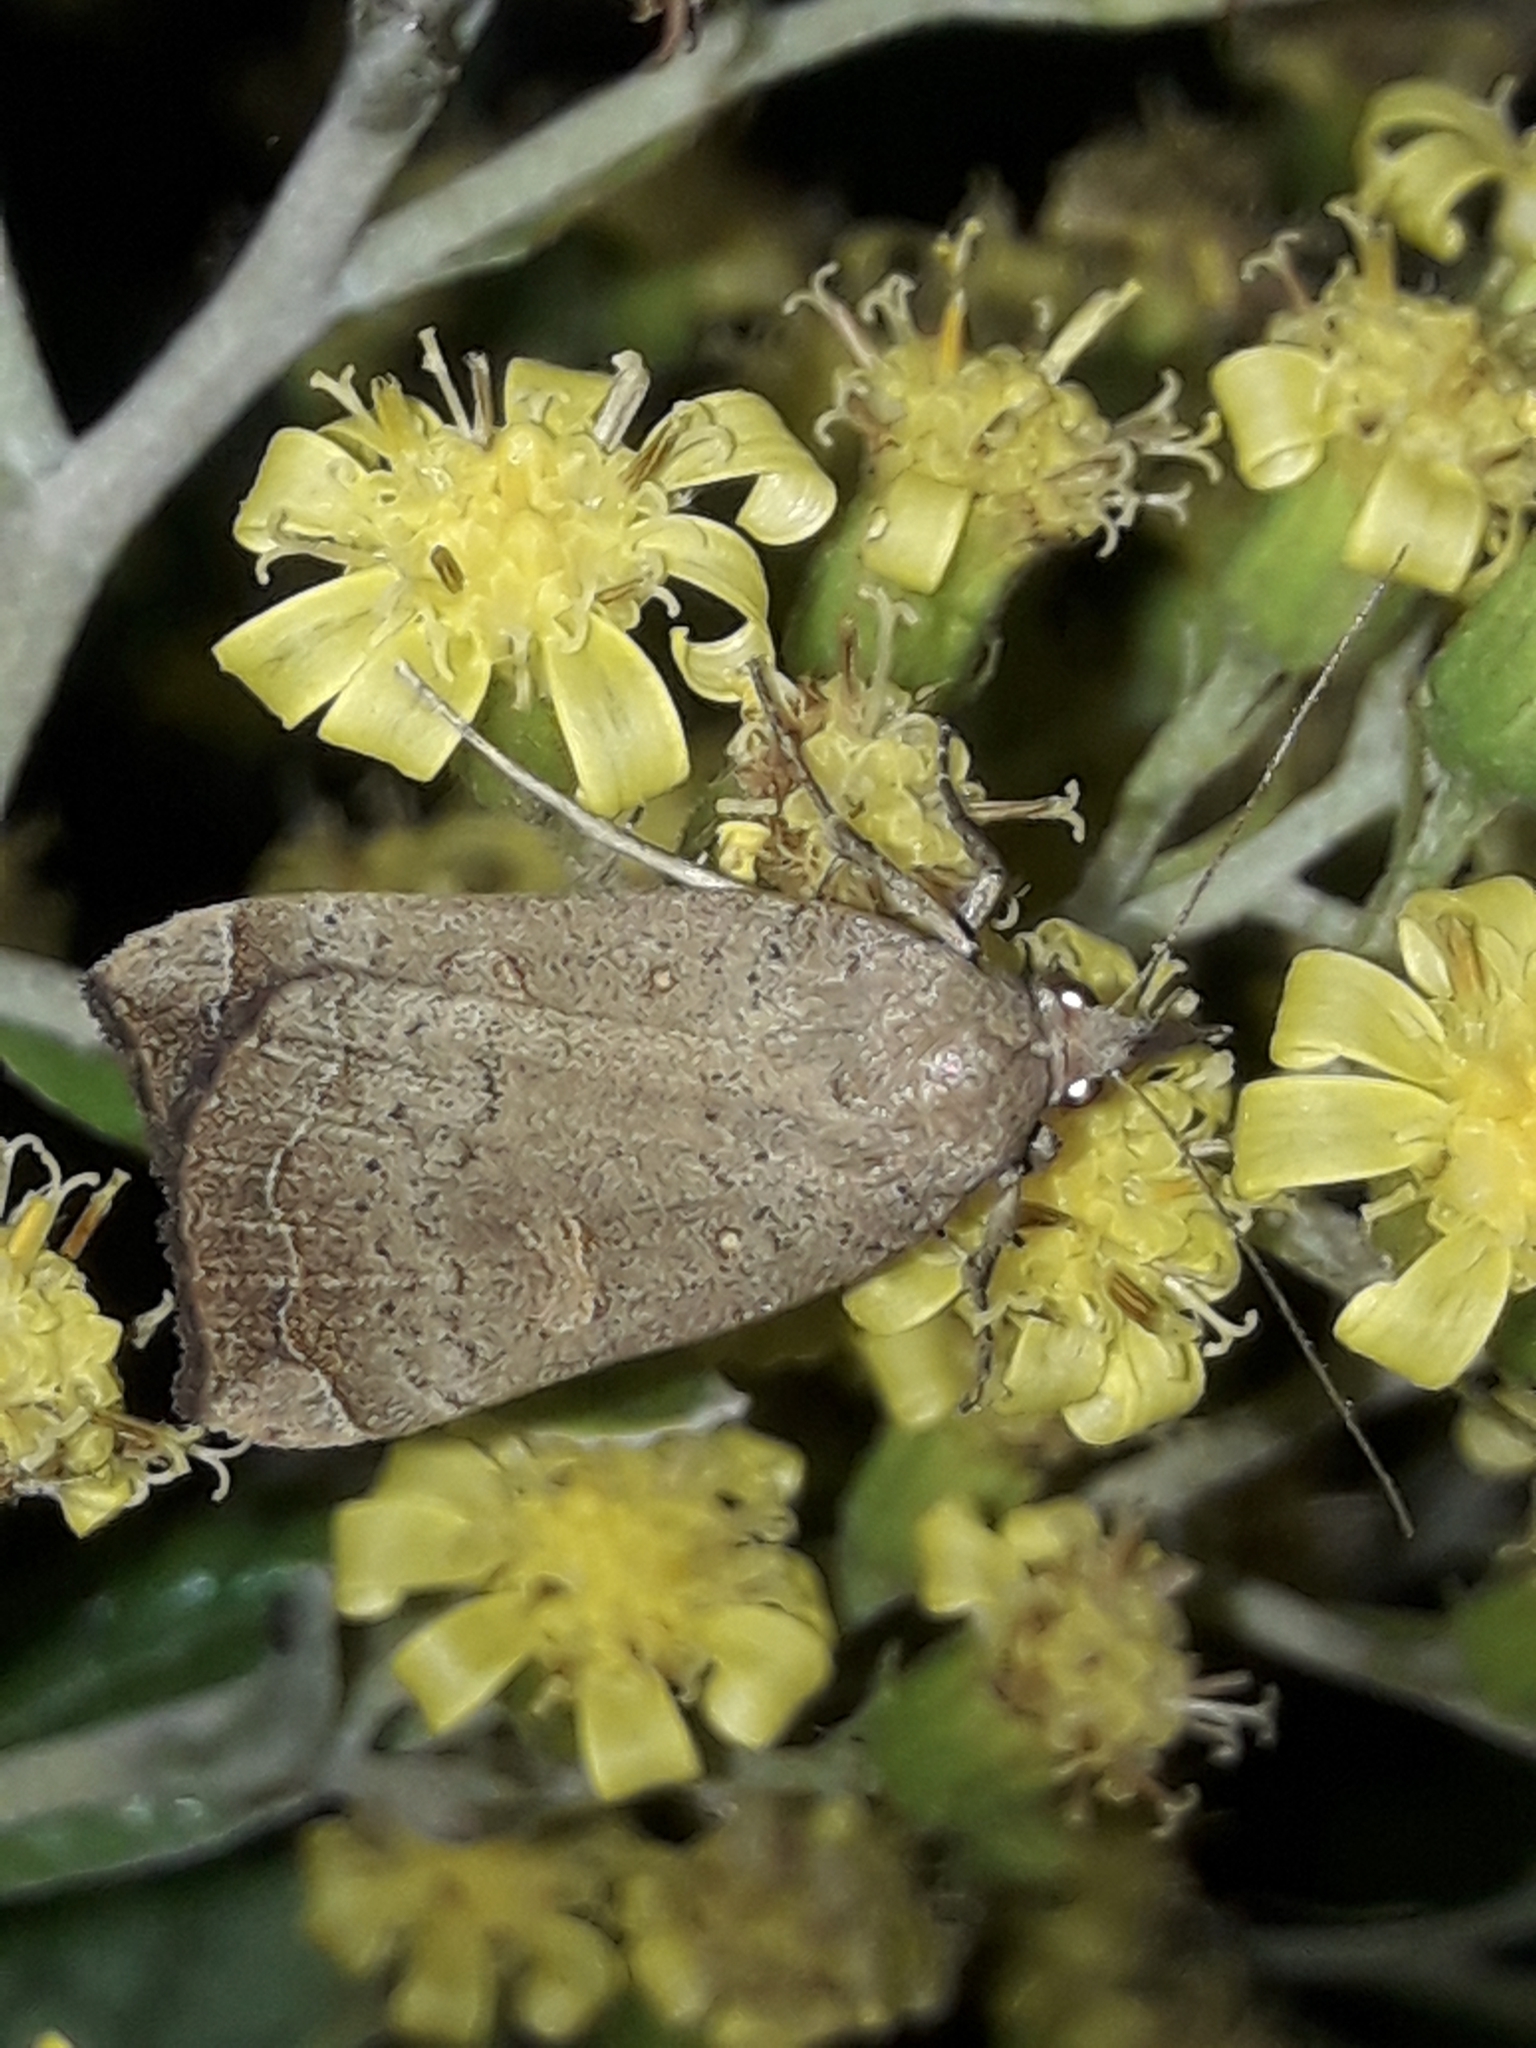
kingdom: Animalia
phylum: Arthropoda
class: Insecta
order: Lepidoptera
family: Erebidae
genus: Rhapsa
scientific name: Rhapsa scotosialis
